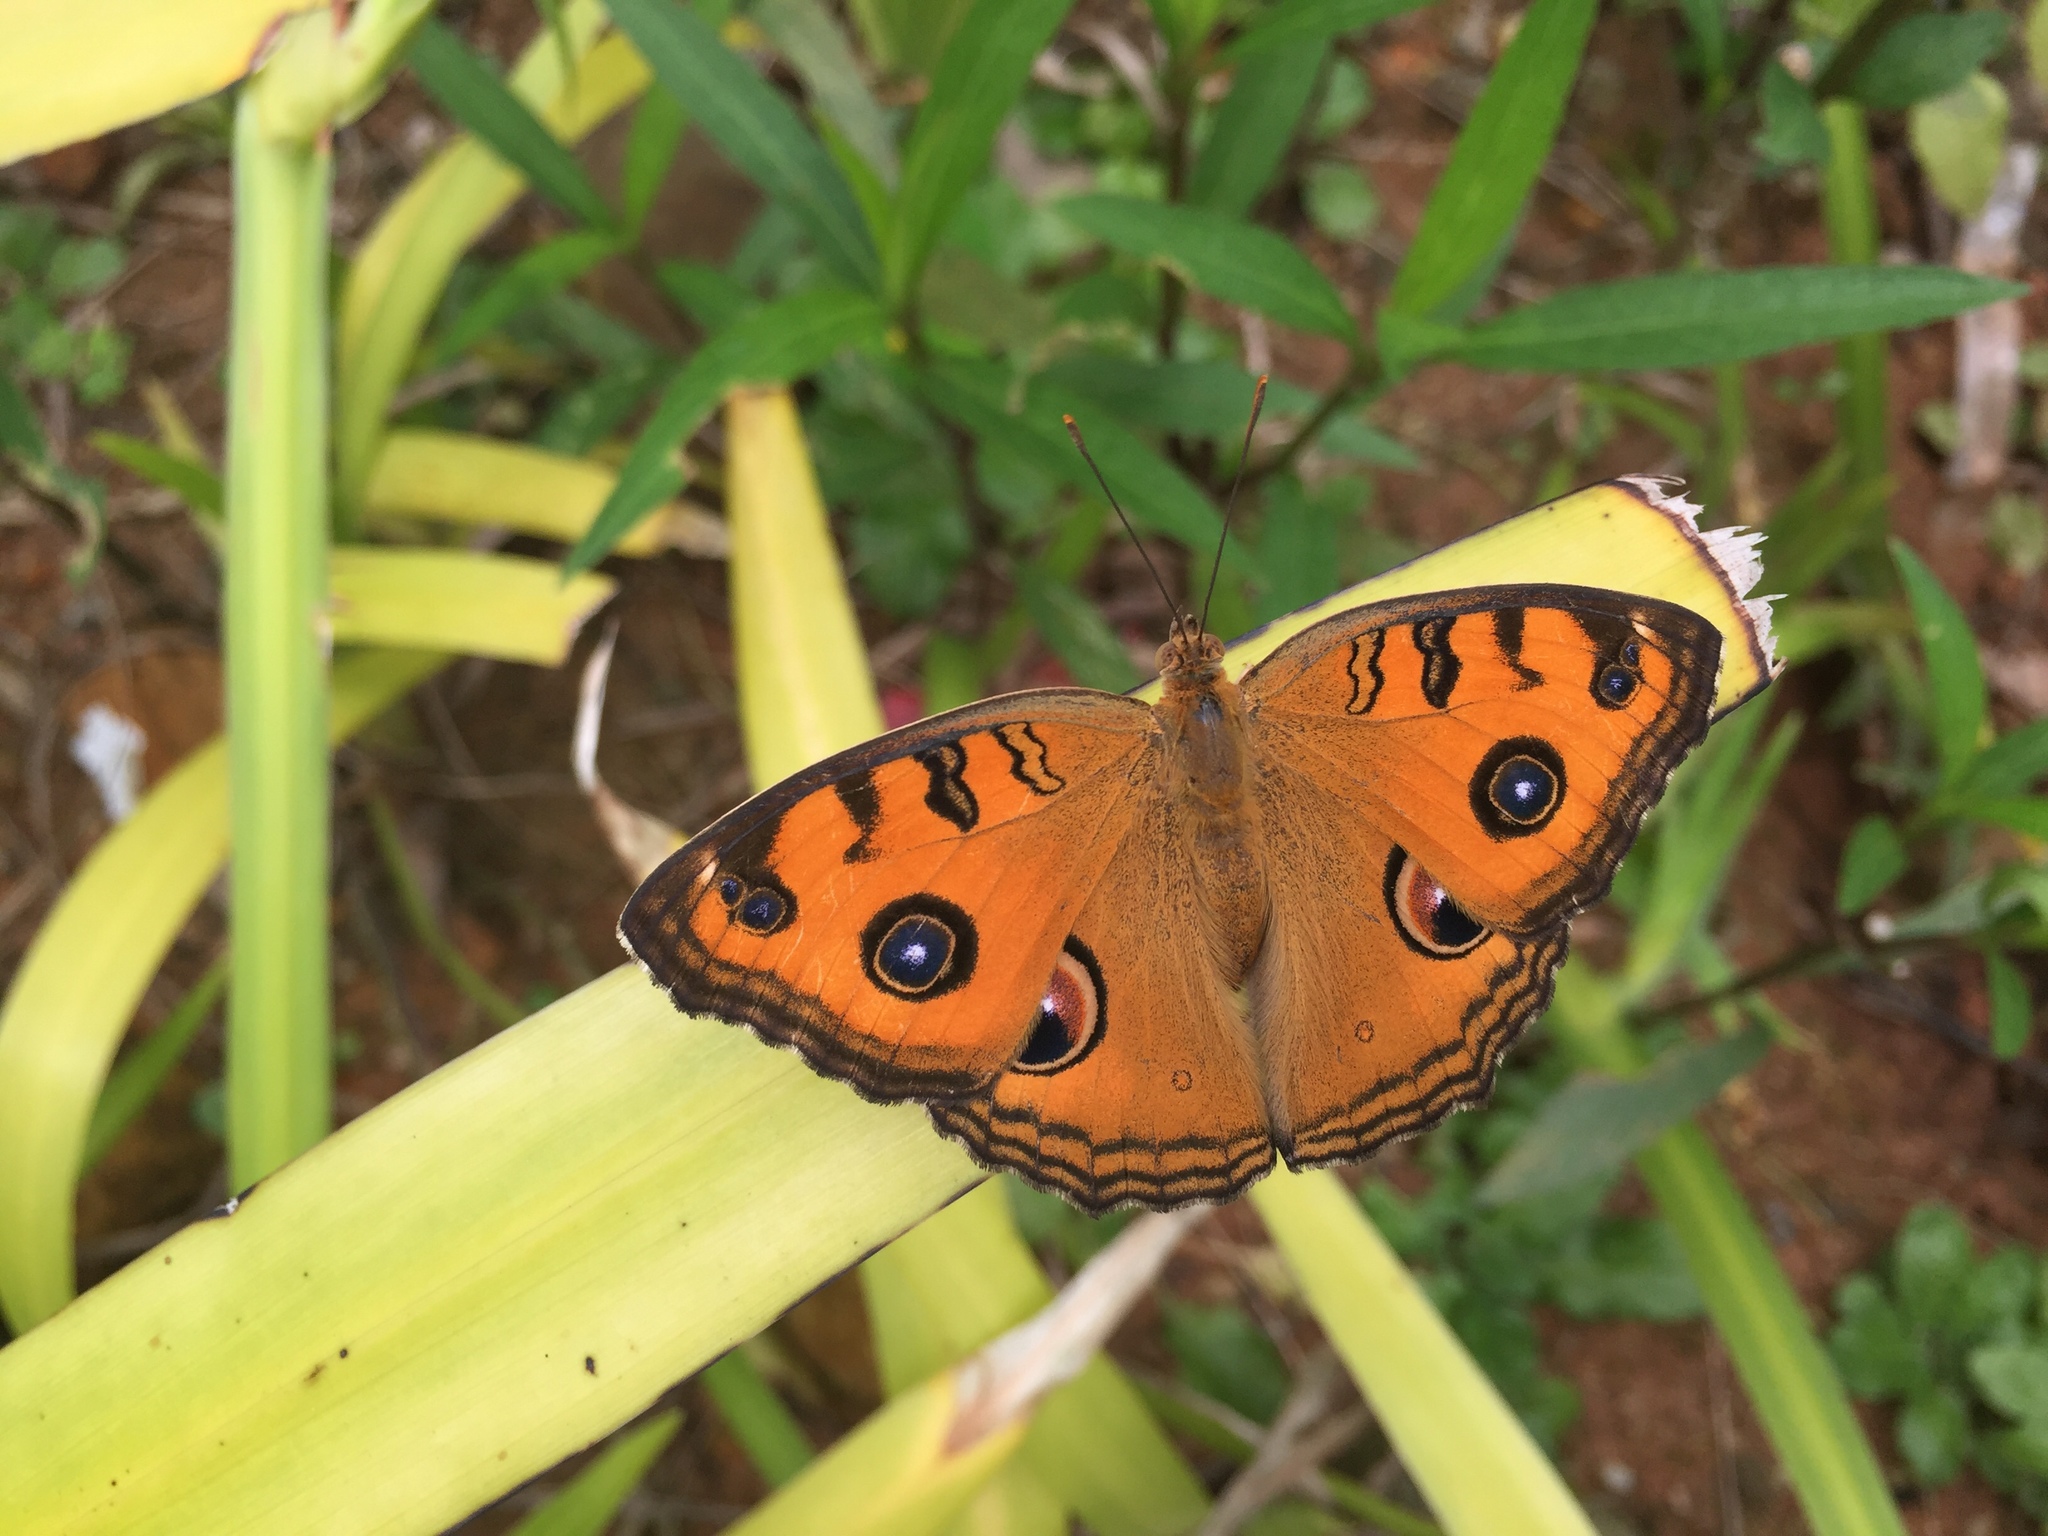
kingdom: Animalia
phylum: Arthropoda
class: Insecta
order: Lepidoptera
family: Nymphalidae
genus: Junonia
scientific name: Junonia almana
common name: Peacock pansy
